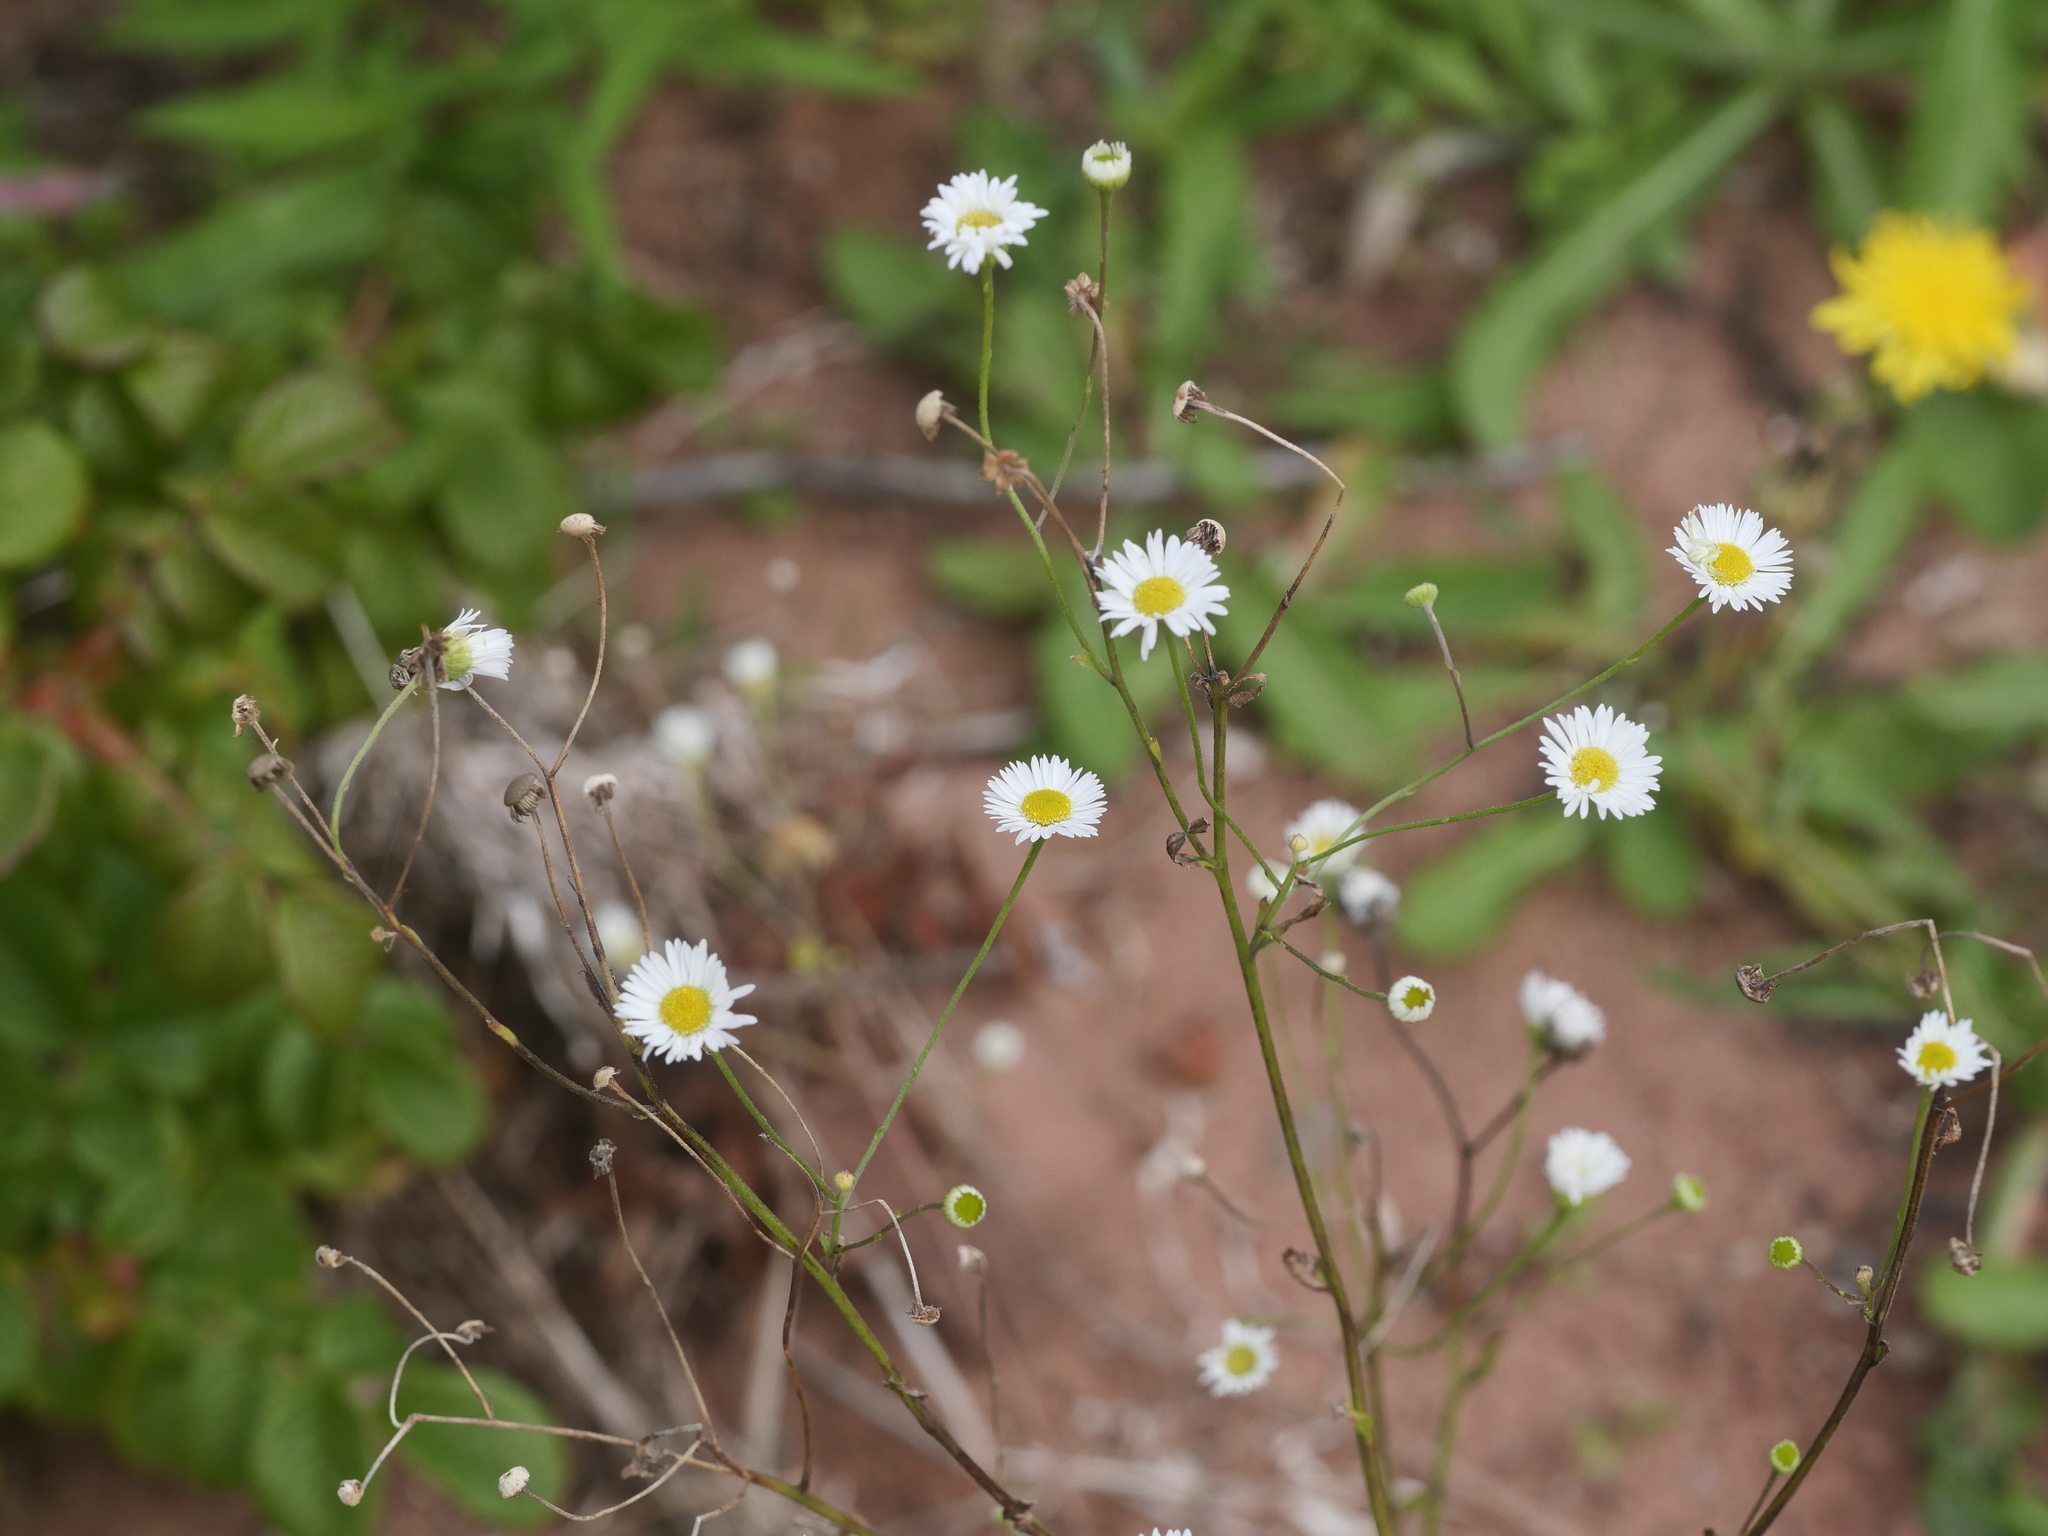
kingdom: Plantae
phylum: Tracheophyta
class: Magnoliopsida
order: Asterales
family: Asteraceae
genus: Erigeron
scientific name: Erigeron strigosus
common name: Common eastern fleabane
